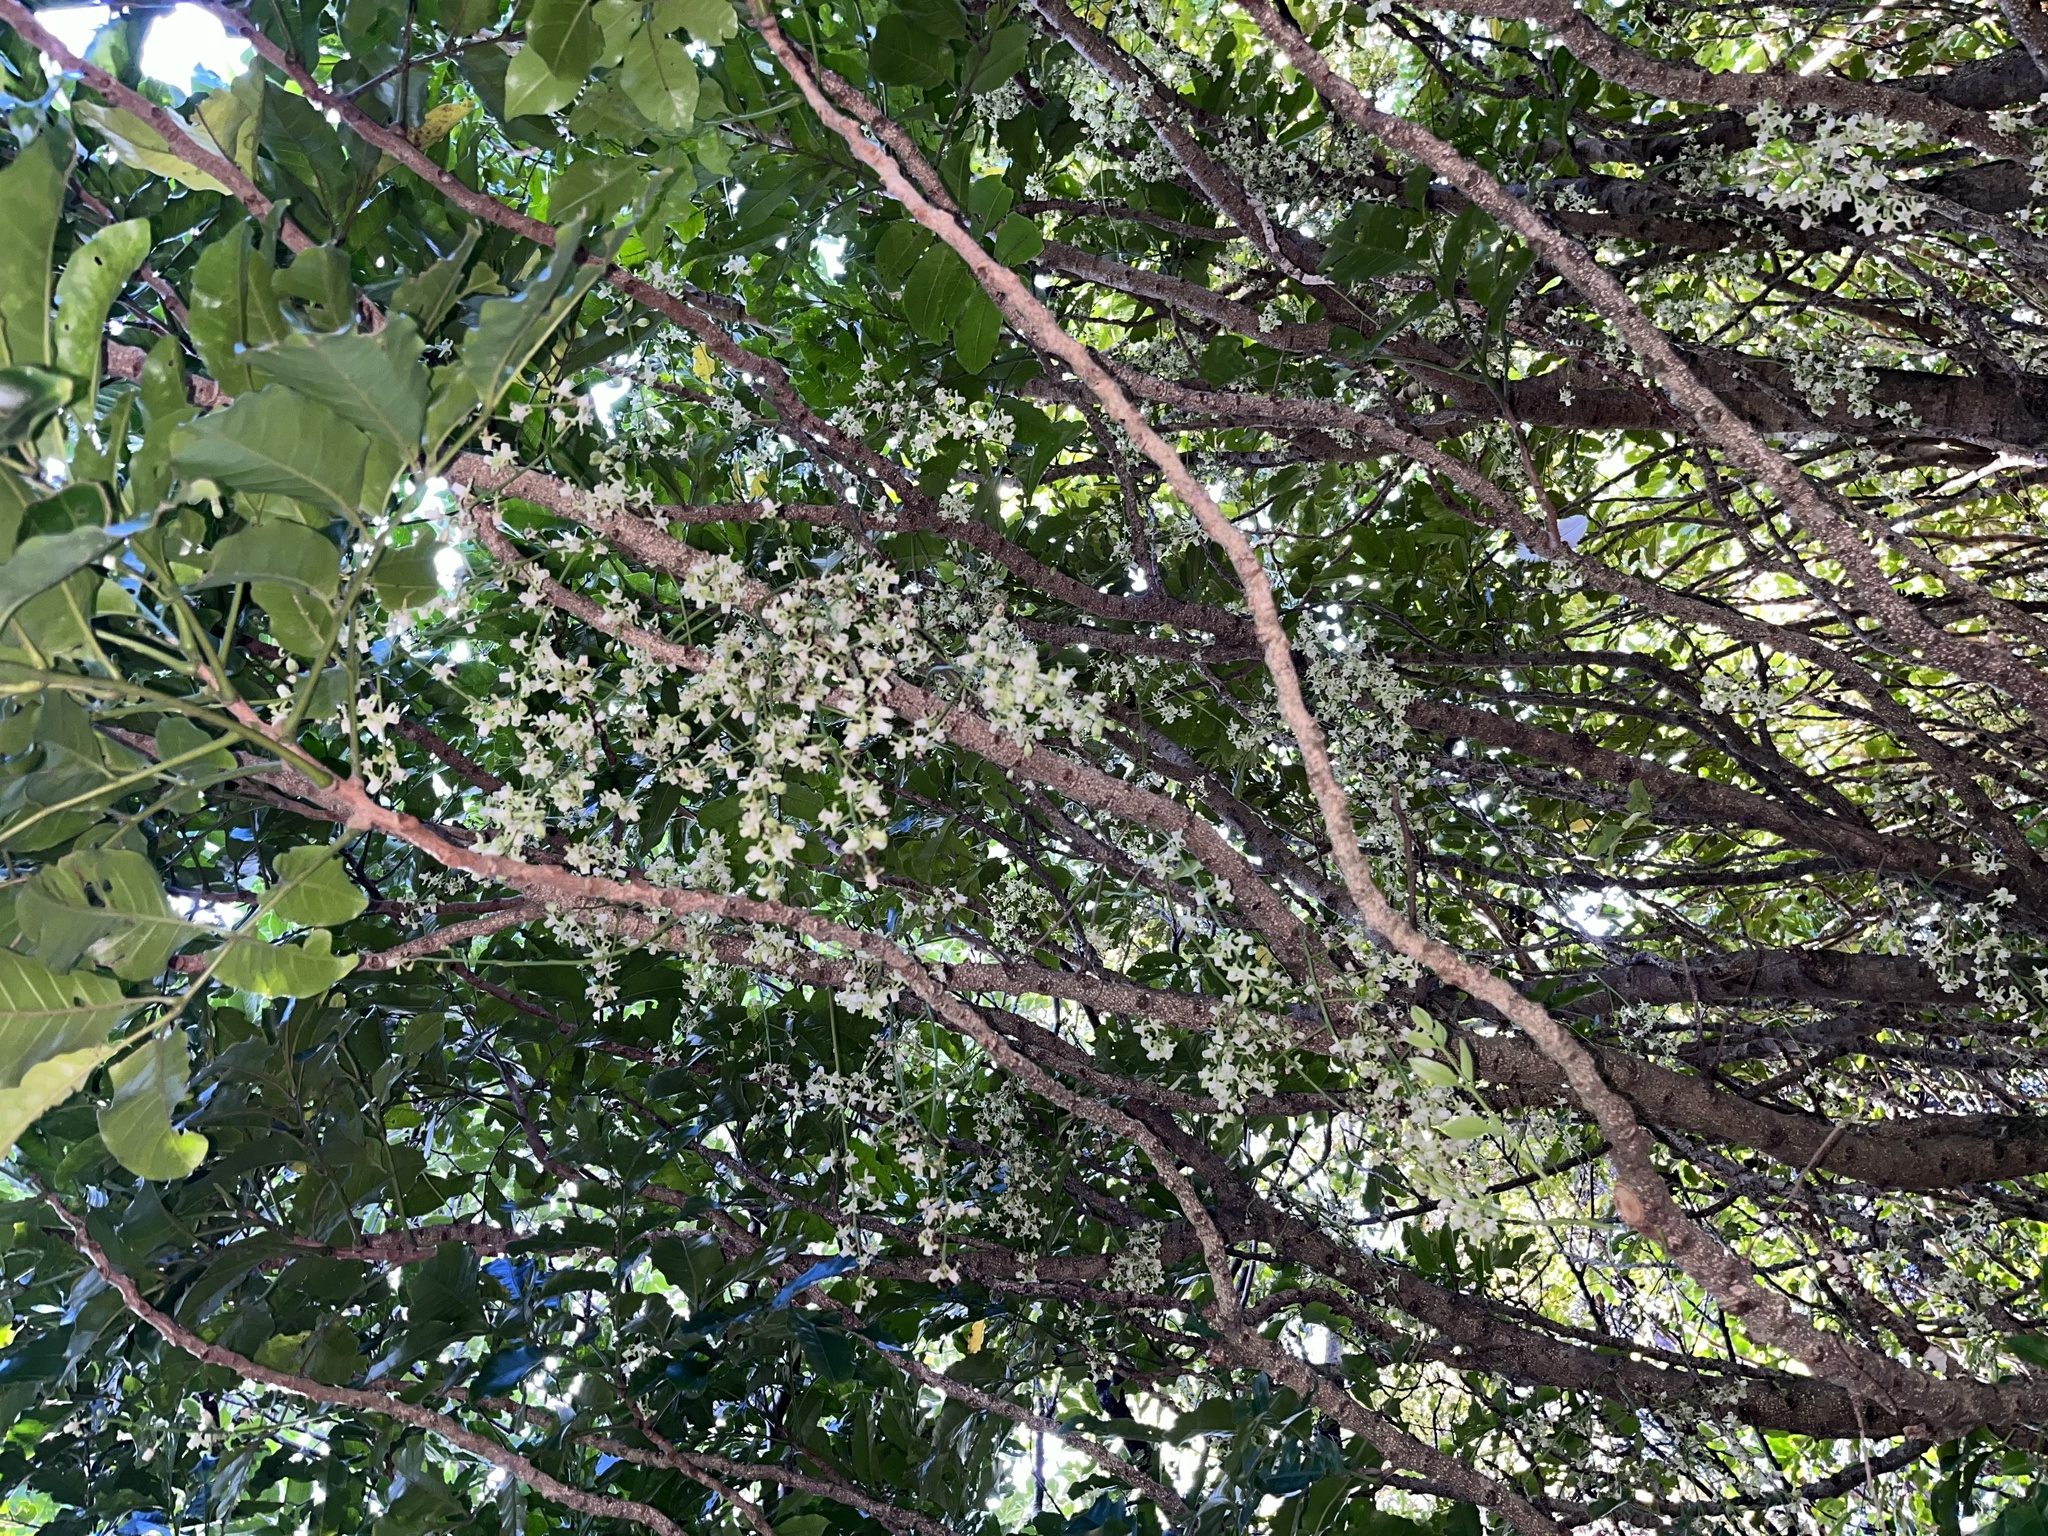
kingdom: Plantae
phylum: Tracheophyta
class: Magnoliopsida
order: Sapindales
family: Meliaceae
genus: Didymocheton
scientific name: Didymocheton spectabilis
